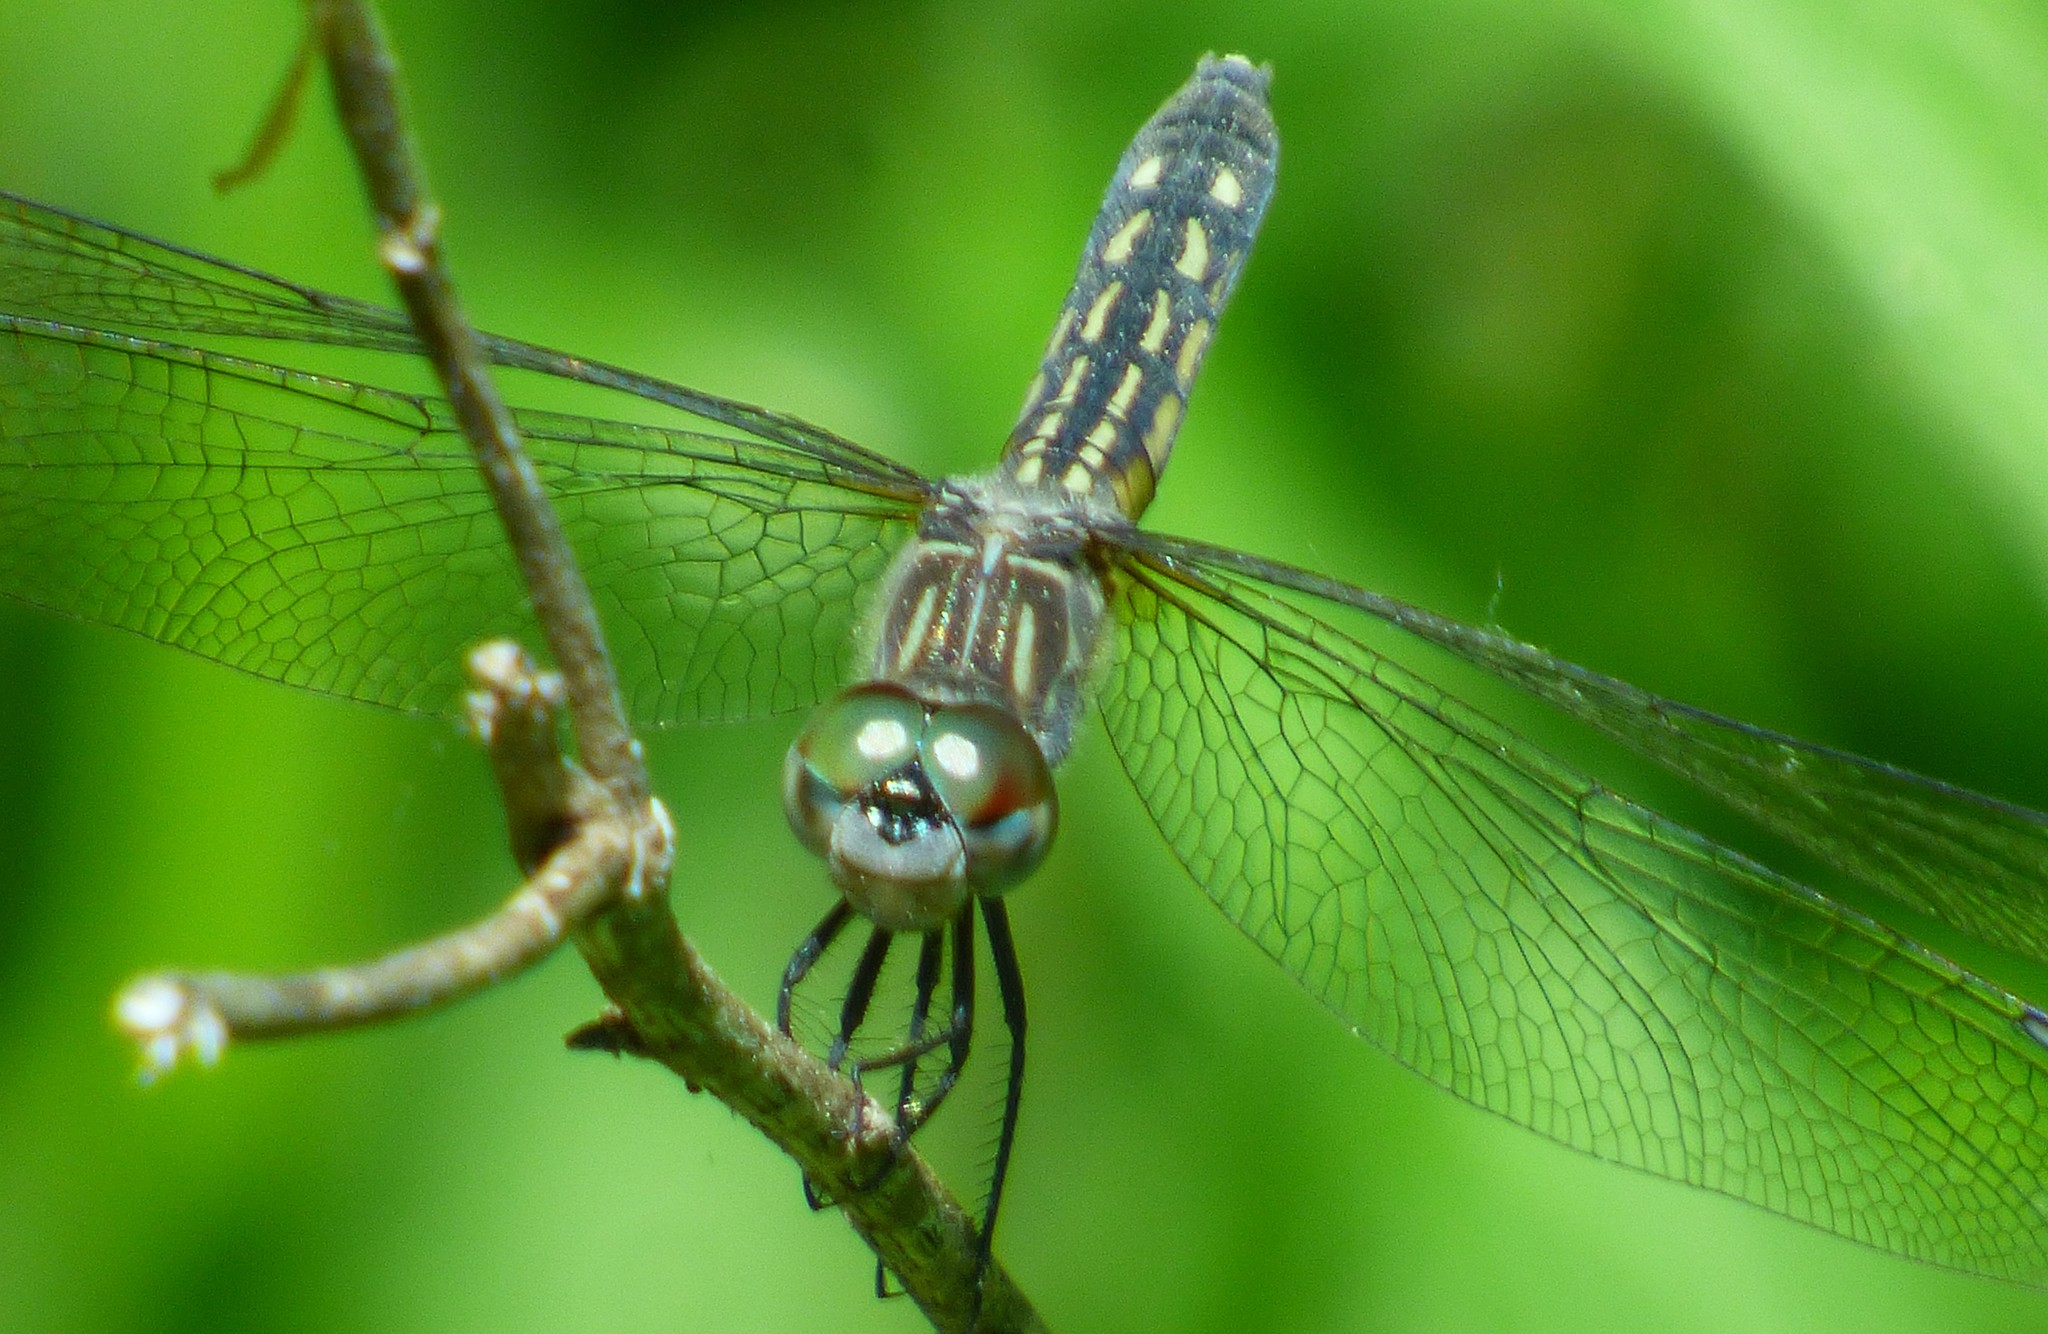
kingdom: Animalia
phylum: Arthropoda
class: Insecta
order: Odonata
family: Libellulidae
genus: Pachydiplax
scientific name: Pachydiplax longipennis
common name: Blue dasher
